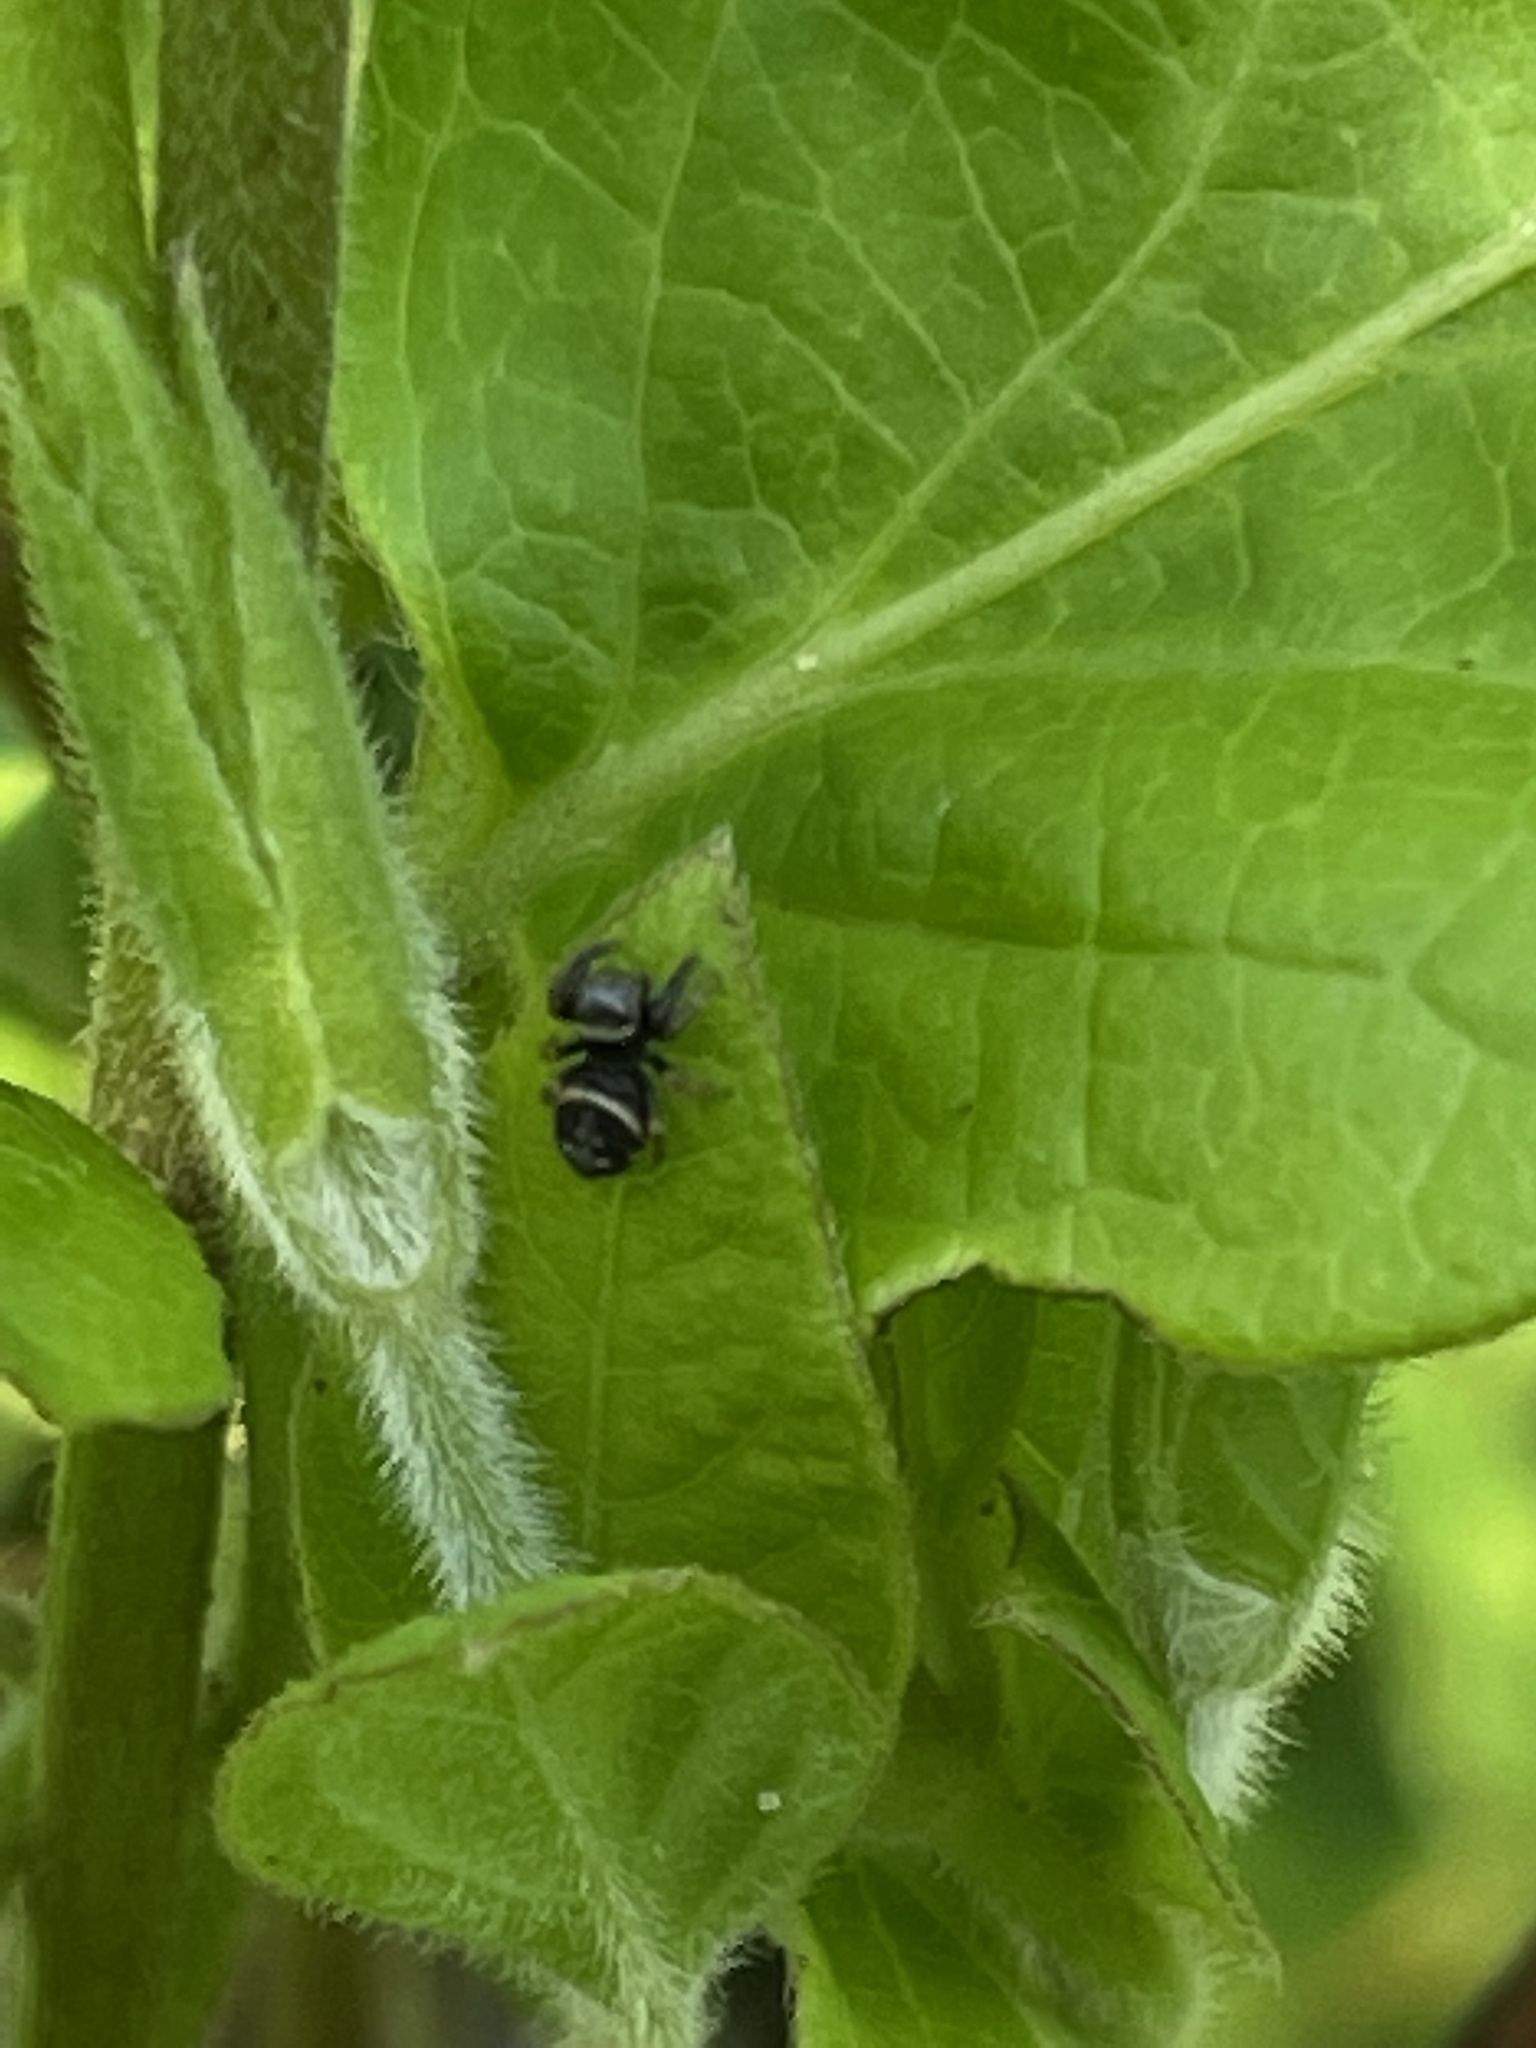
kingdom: Animalia
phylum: Arthropoda
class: Arachnida
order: Araneae
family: Salticidae
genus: Paraphidippus
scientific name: Paraphidippus aurantius
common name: Jumping spiders
